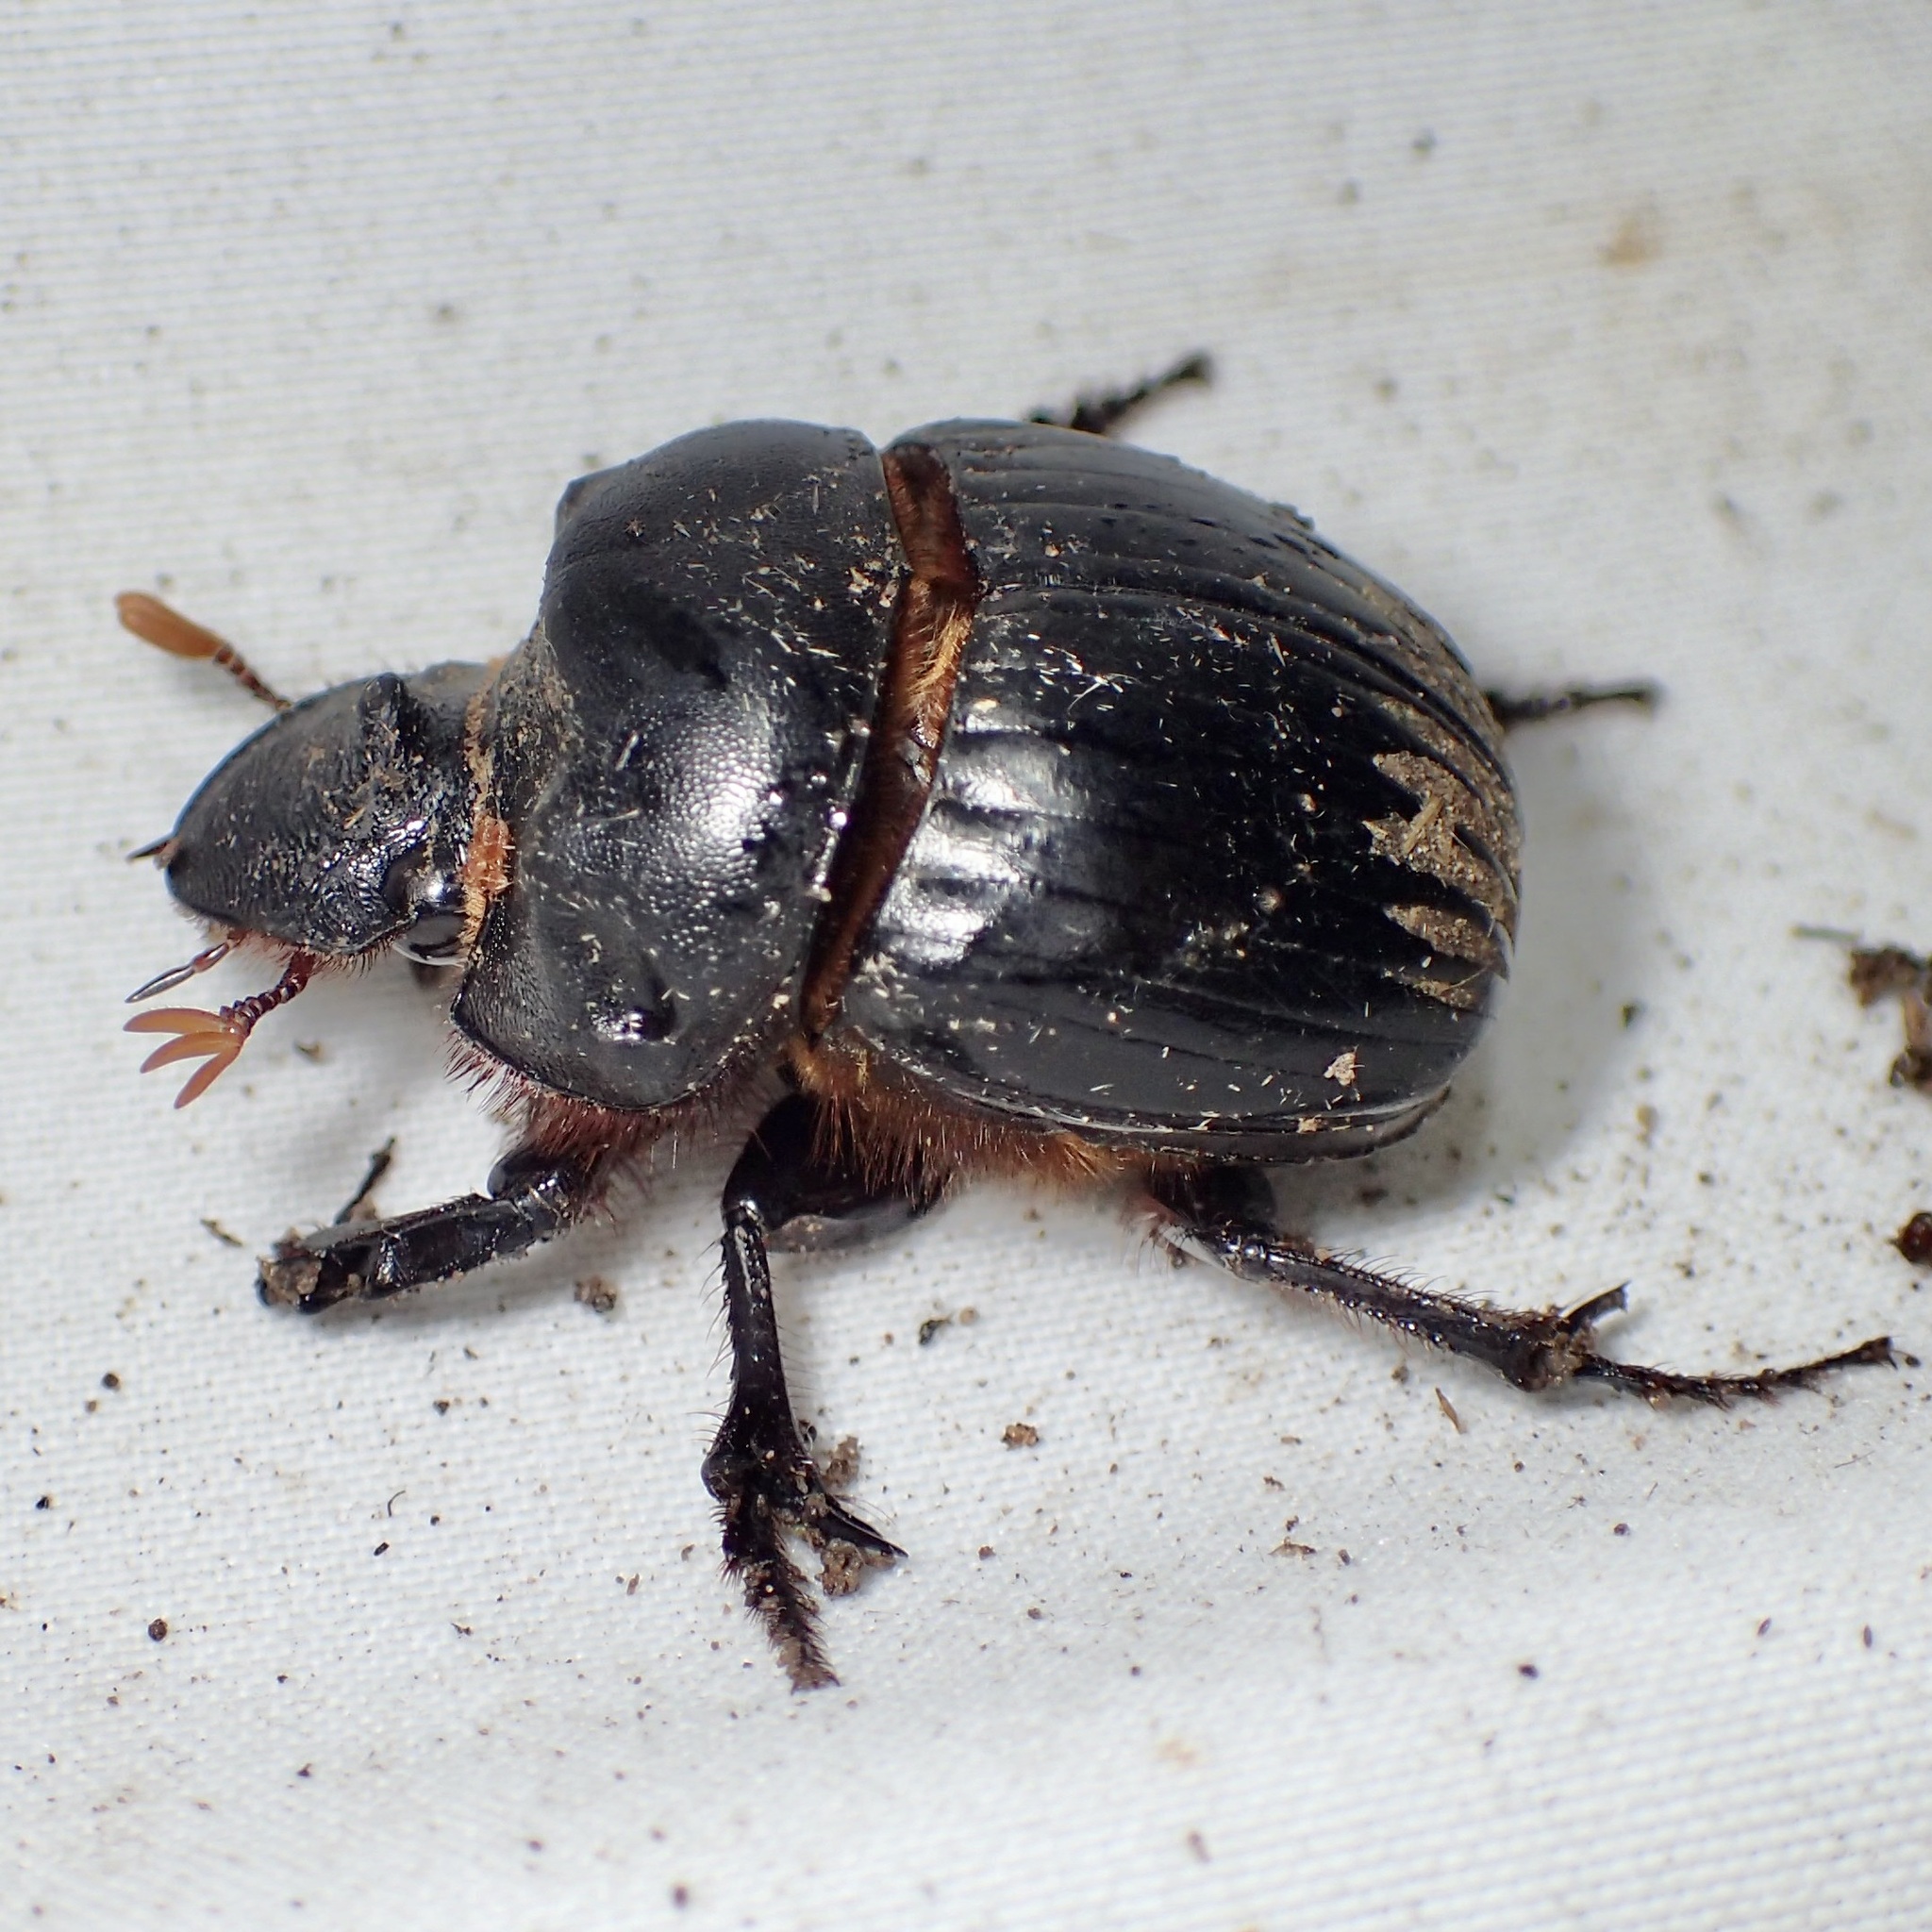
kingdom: Animalia
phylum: Arthropoda
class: Insecta
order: Coleoptera
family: Scarabaeidae
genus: Dichotomius
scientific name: Dichotomius colonicus
